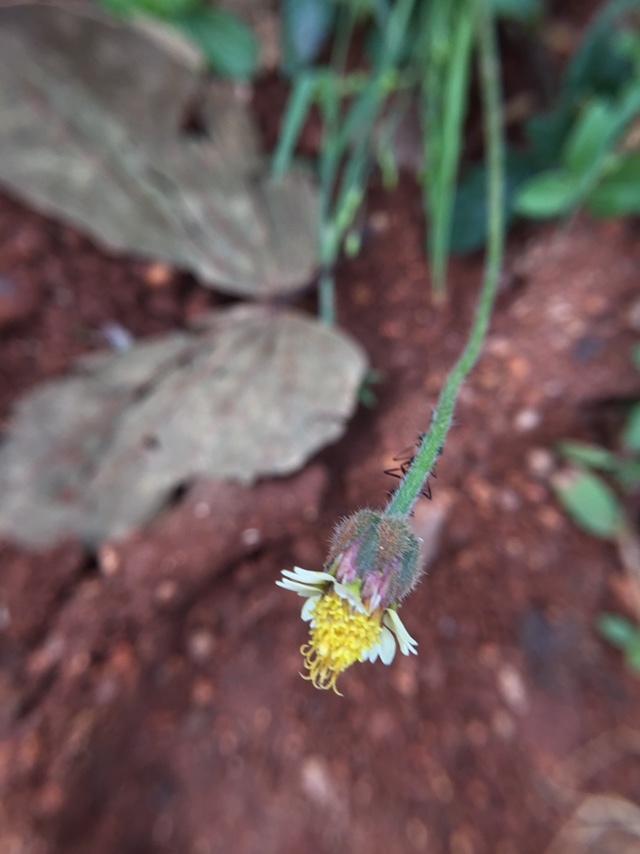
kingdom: Plantae
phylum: Tracheophyta
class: Magnoliopsida
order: Asterales
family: Asteraceae
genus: Tridax
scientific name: Tridax procumbens
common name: Coatbuttons
